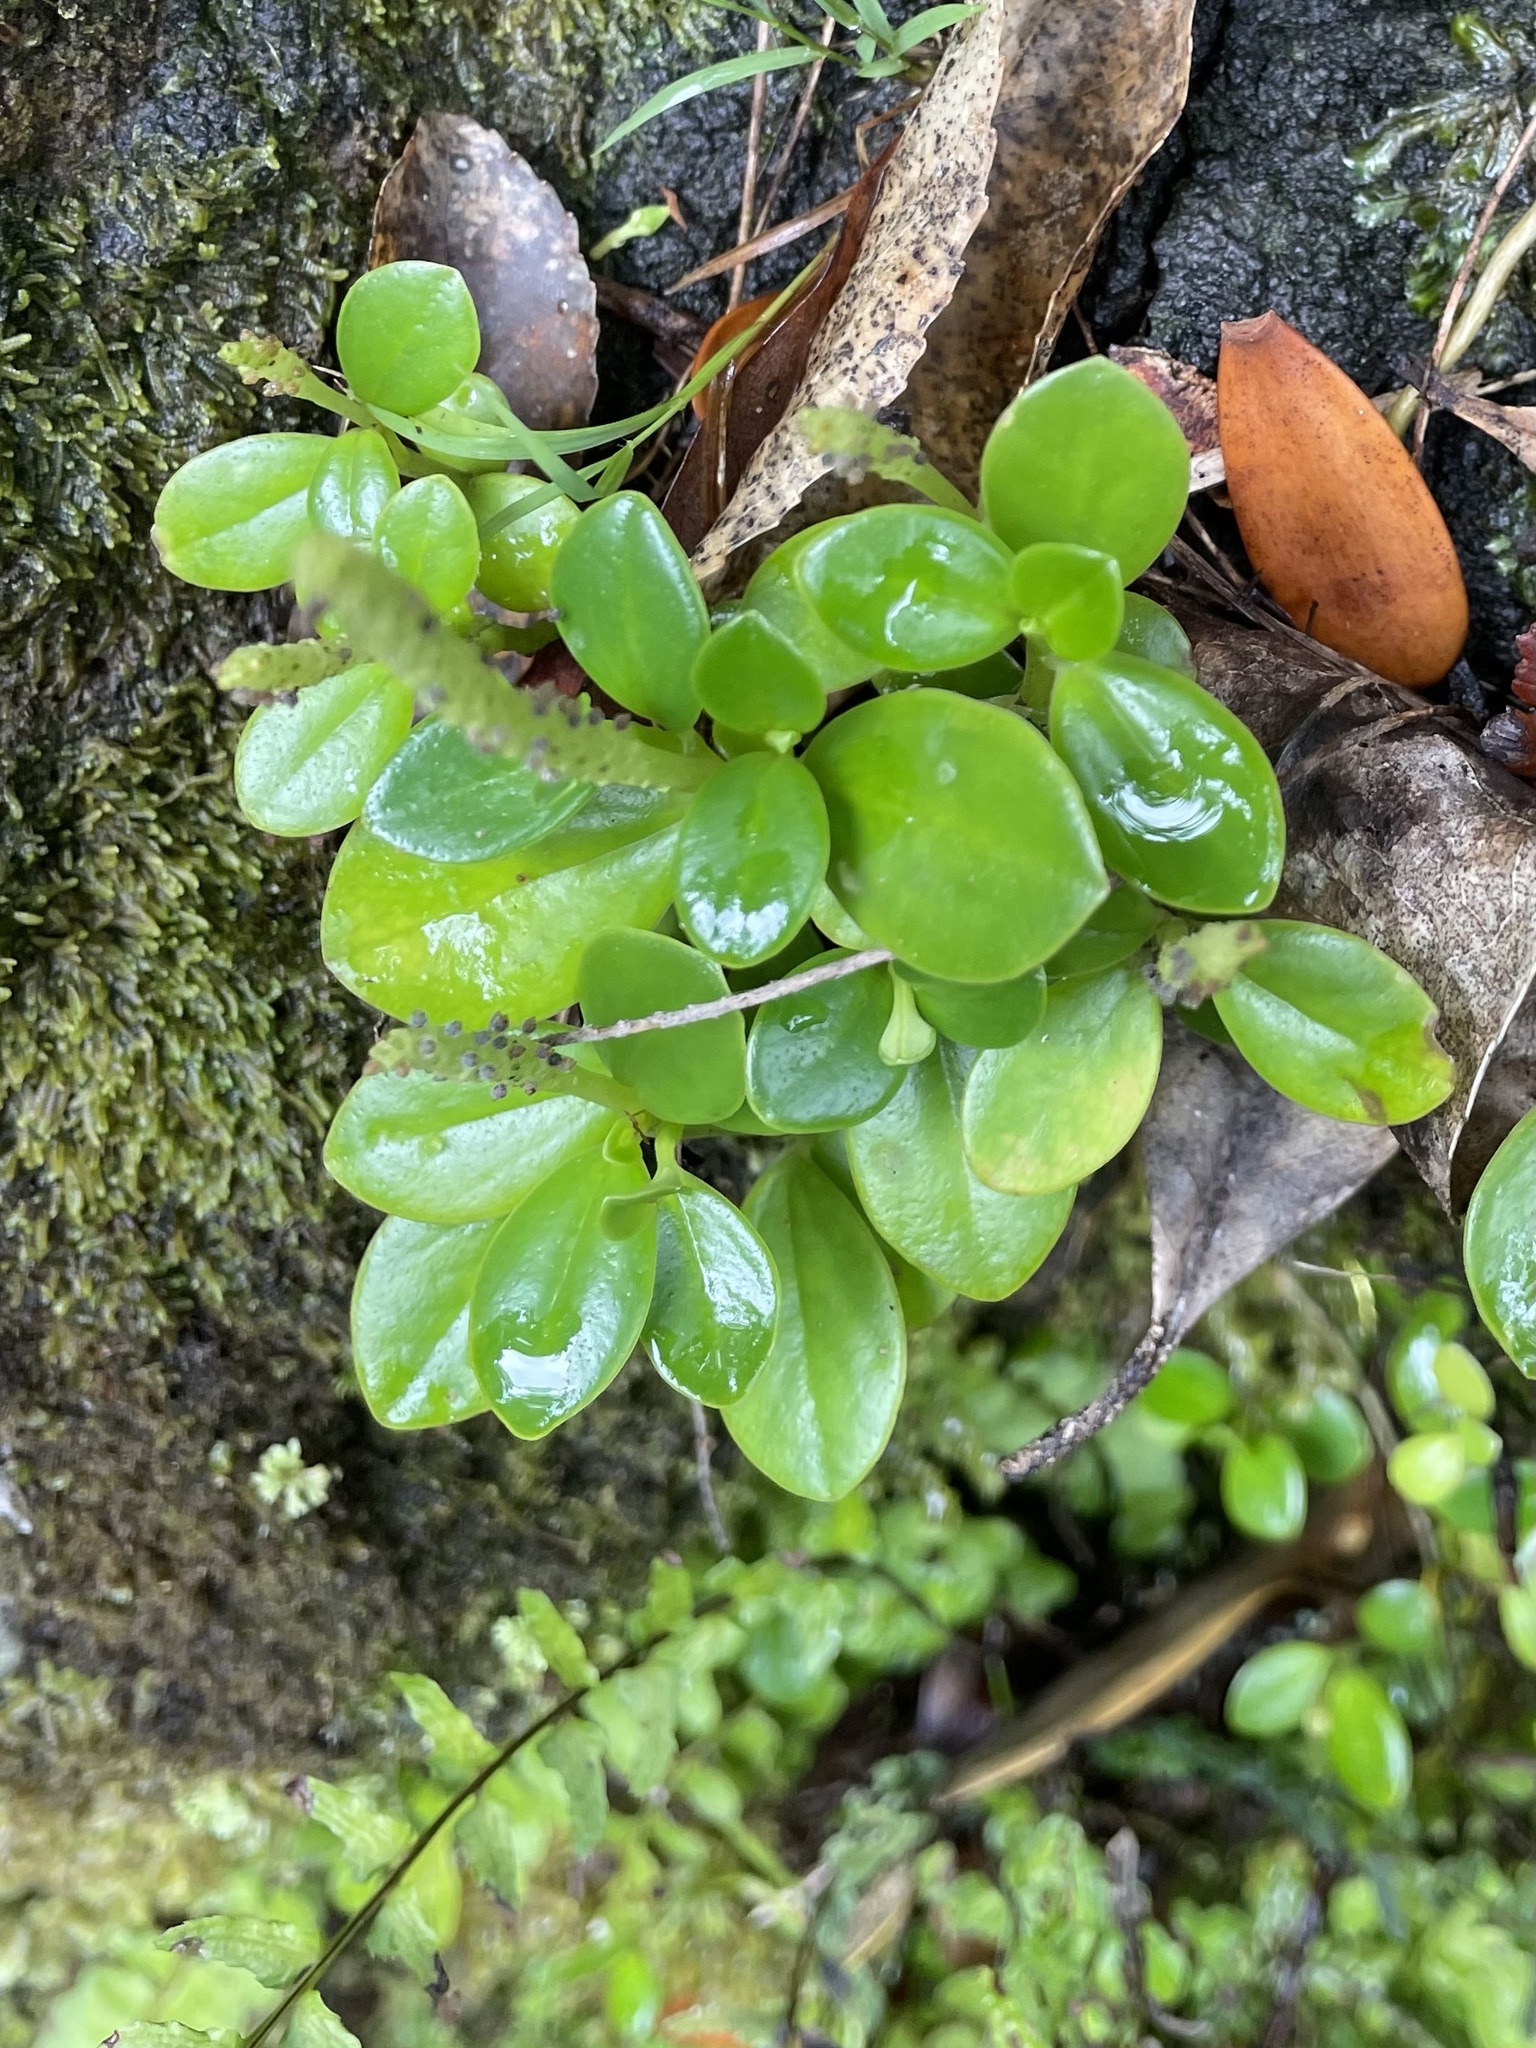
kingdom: Plantae
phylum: Tracheophyta
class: Magnoliopsida
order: Piperales
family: Piperaceae
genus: Peperomia
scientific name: Peperomia urvilleana
